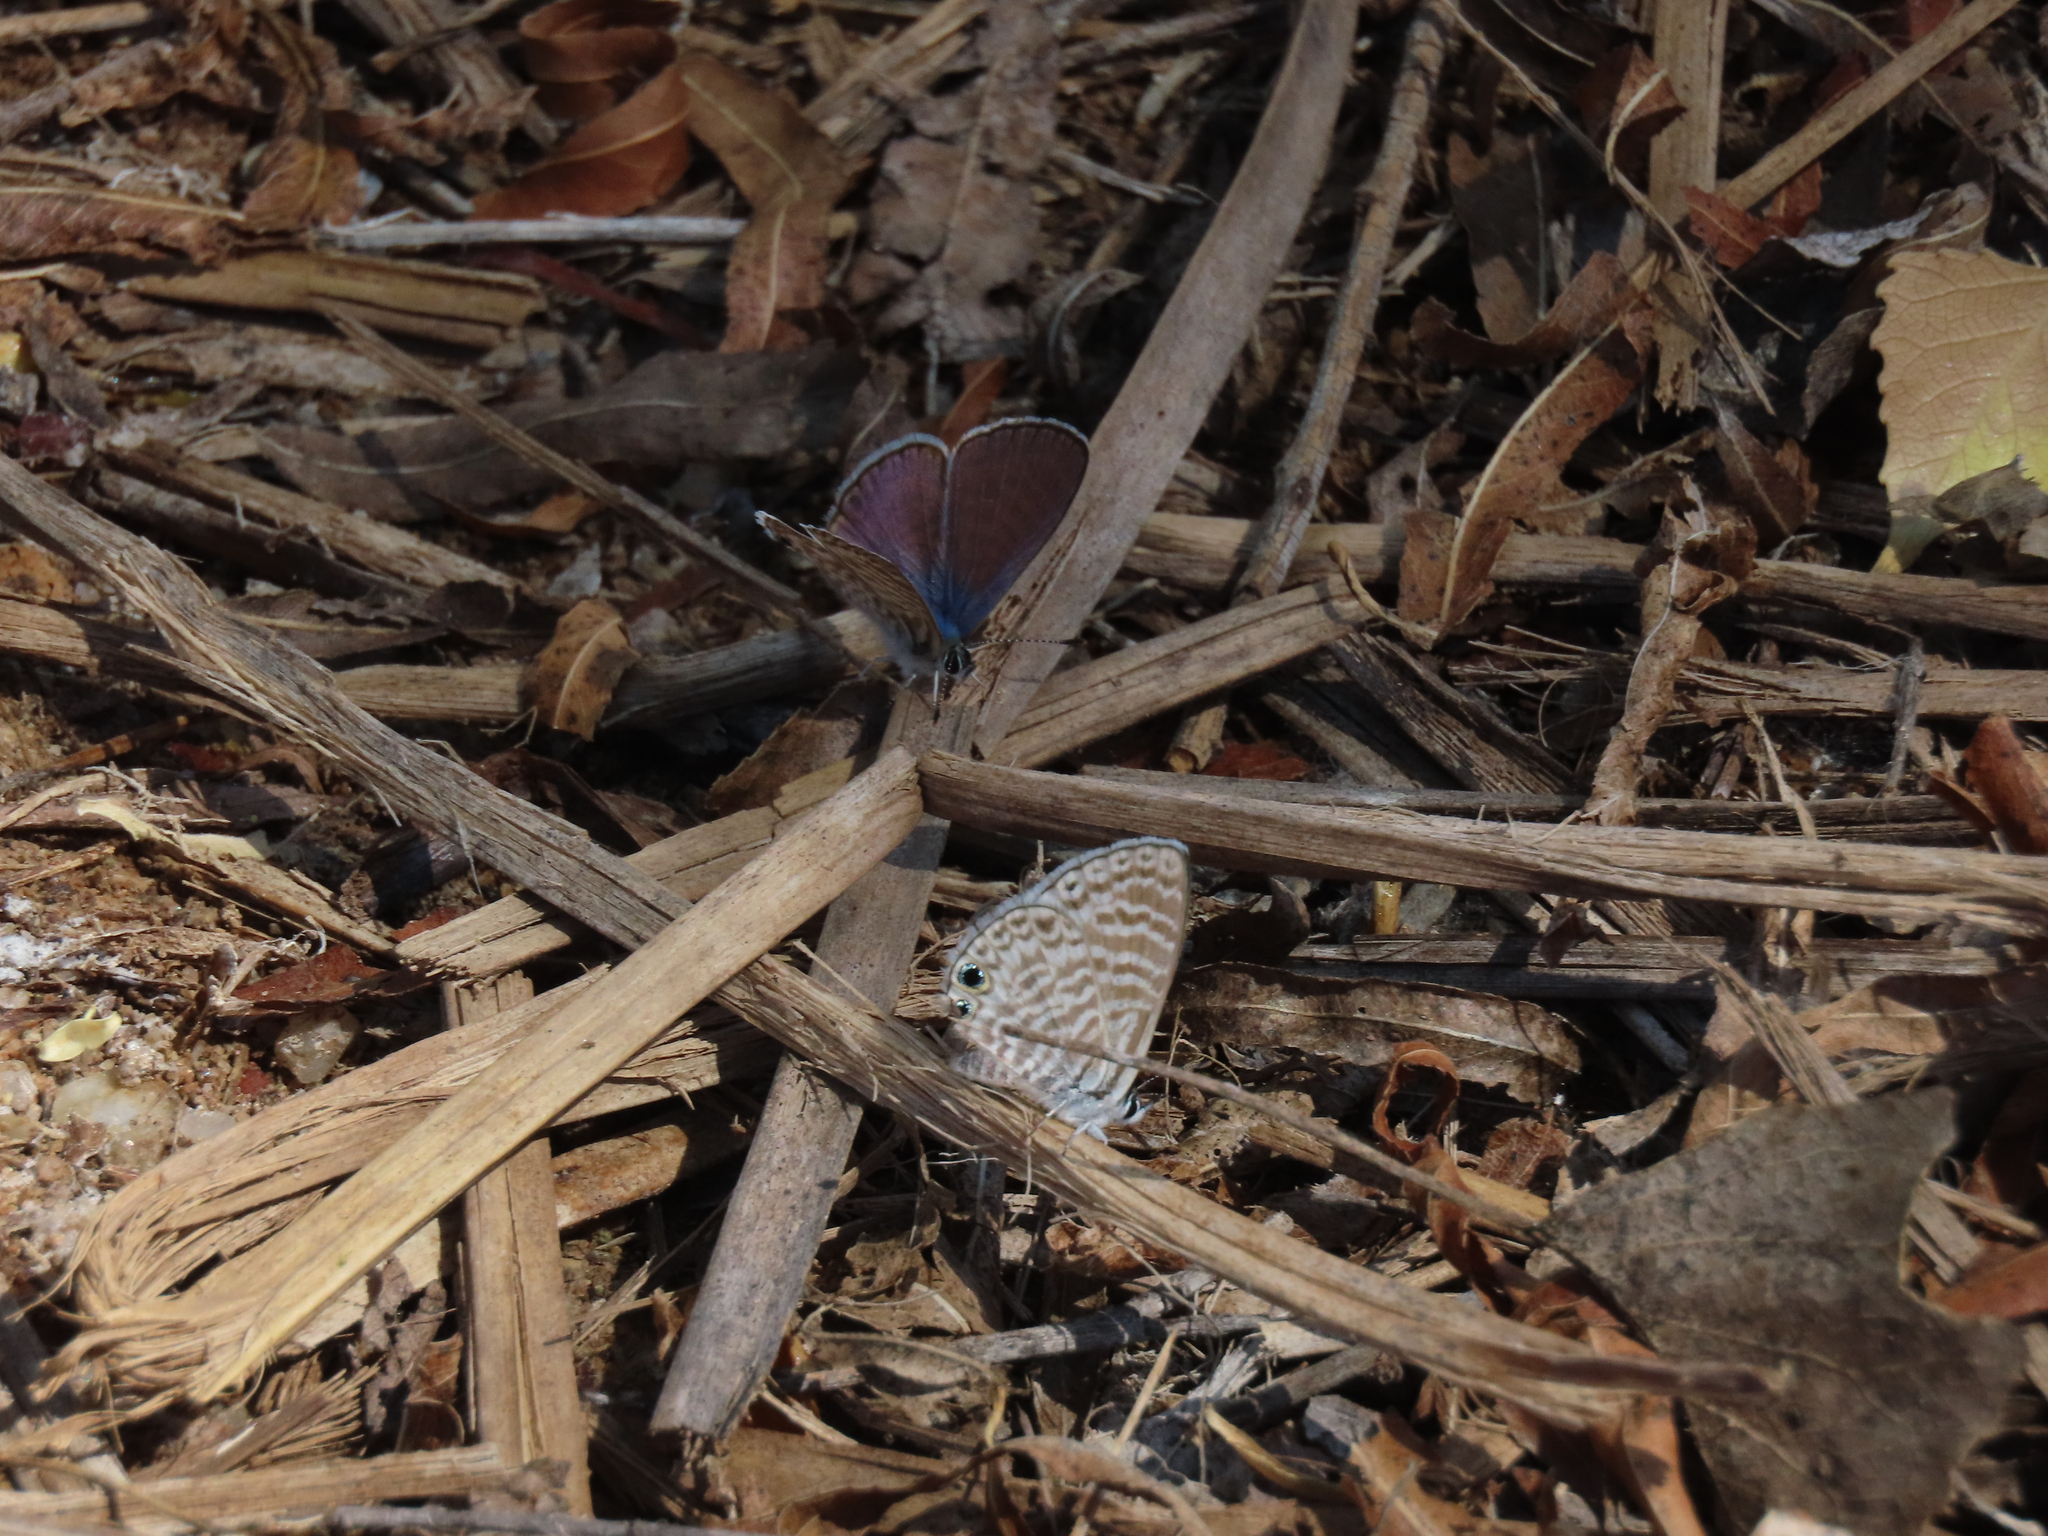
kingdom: Animalia
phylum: Arthropoda
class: Insecta
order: Lepidoptera
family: Lycaenidae
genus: Leptotes
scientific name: Leptotes marina
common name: Marine blue
